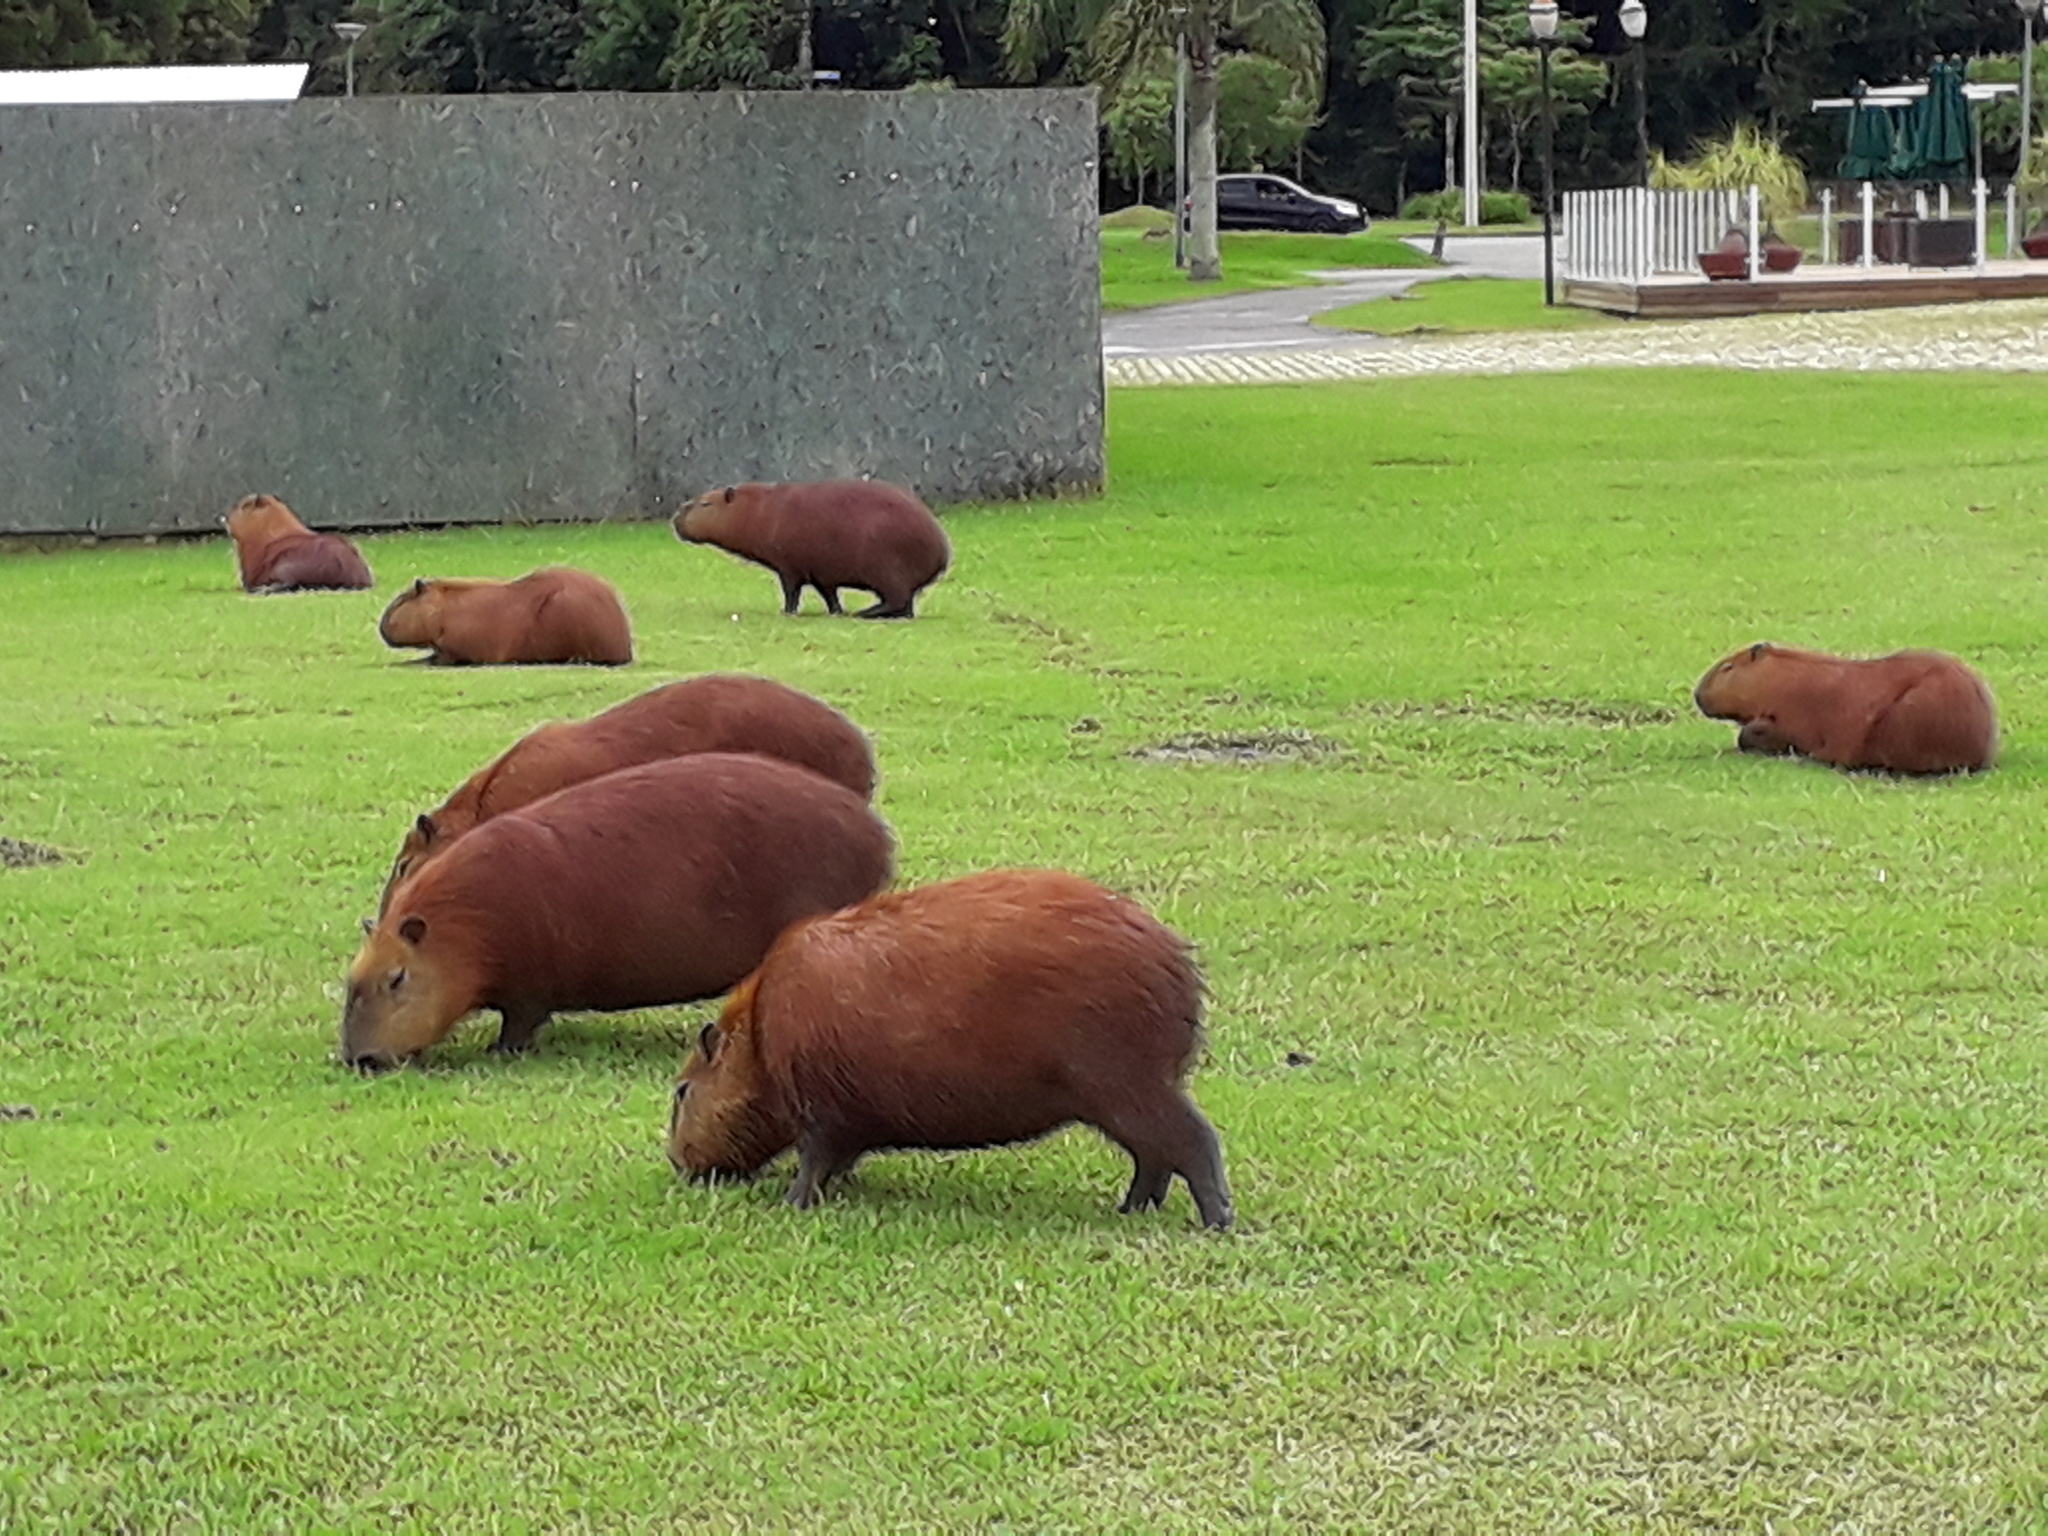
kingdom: Animalia
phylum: Chordata
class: Mammalia
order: Rodentia
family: Caviidae
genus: Hydrochoerus
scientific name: Hydrochoerus hydrochaeris
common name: Capybara
